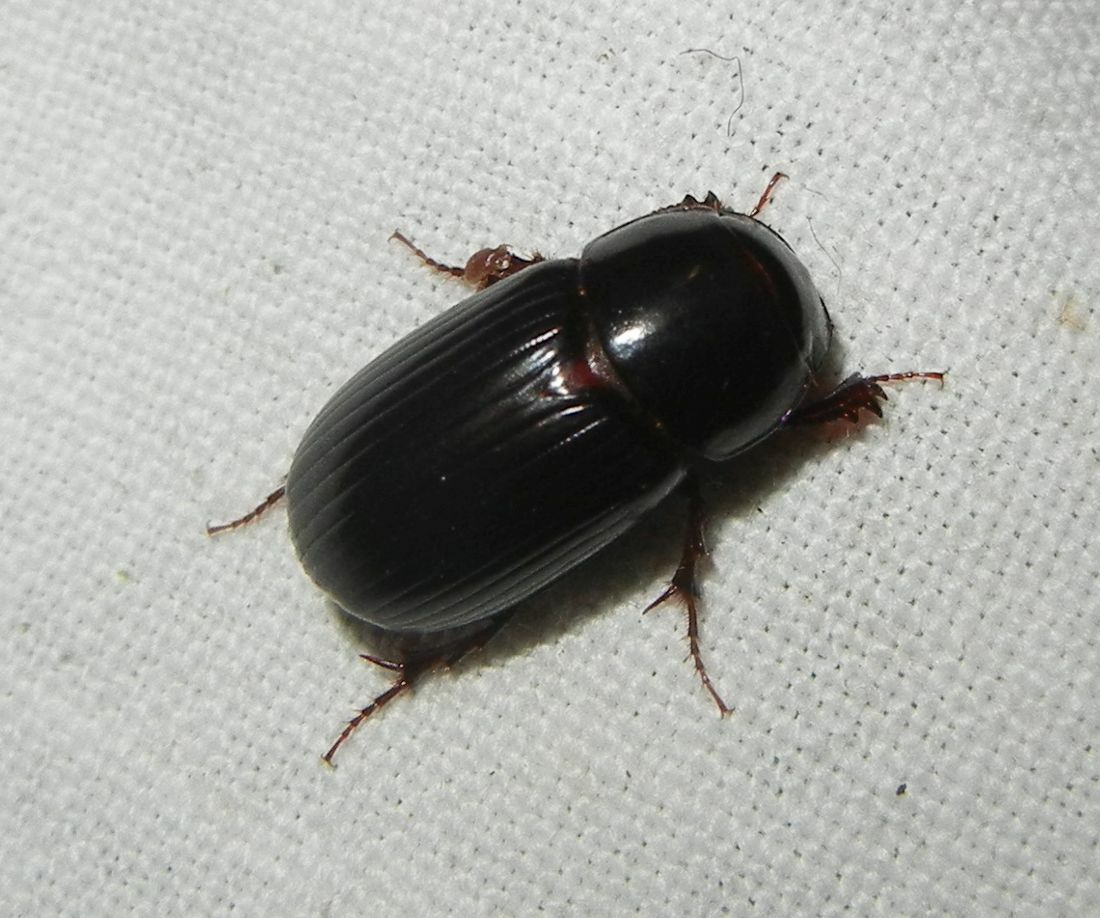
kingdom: Animalia
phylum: Arthropoda
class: Insecta
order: Coleoptera
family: Scarabaeidae
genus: Acrossus
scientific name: Acrossus rufipes
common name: Night-flying dung beetle
